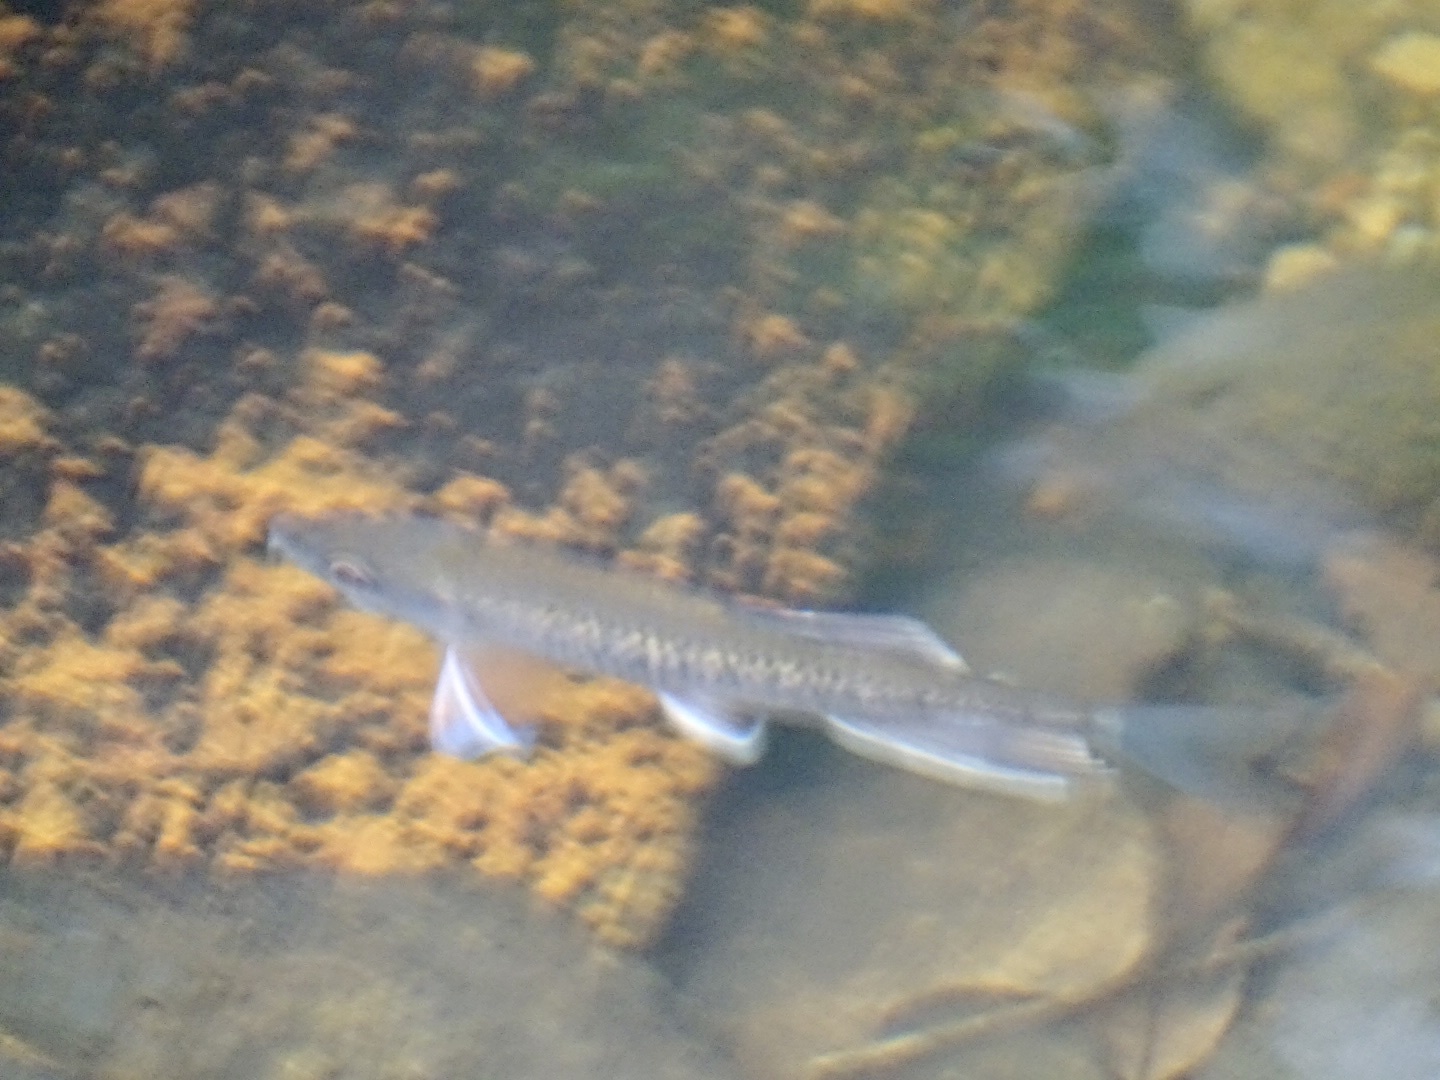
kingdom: Animalia
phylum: Chordata
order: Cypriniformes
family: Cyprinidae
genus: Parazacco
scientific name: Parazacco spilurus
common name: Predaceous chub
